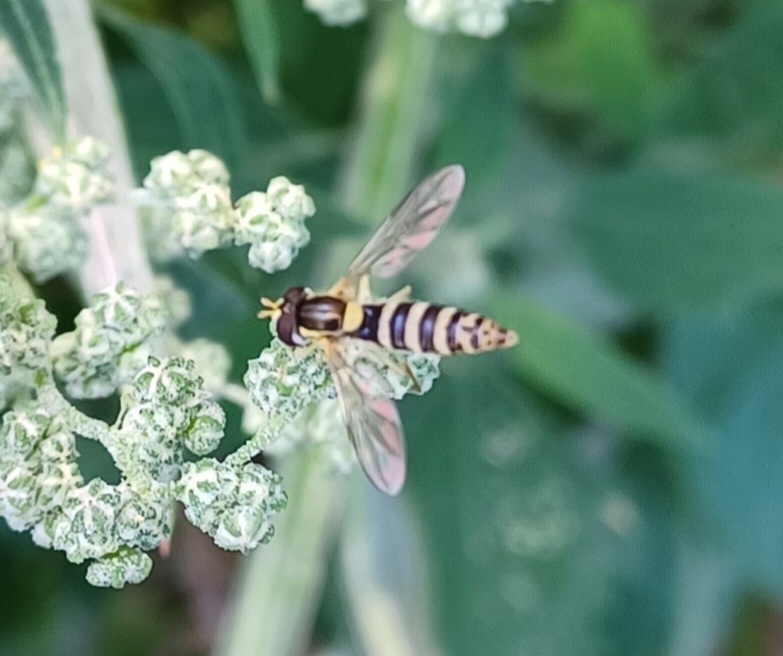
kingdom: Animalia
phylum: Arthropoda
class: Insecta
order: Diptera
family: Syrphidae
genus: Sphaerophoria
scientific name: Sphaerophoria
